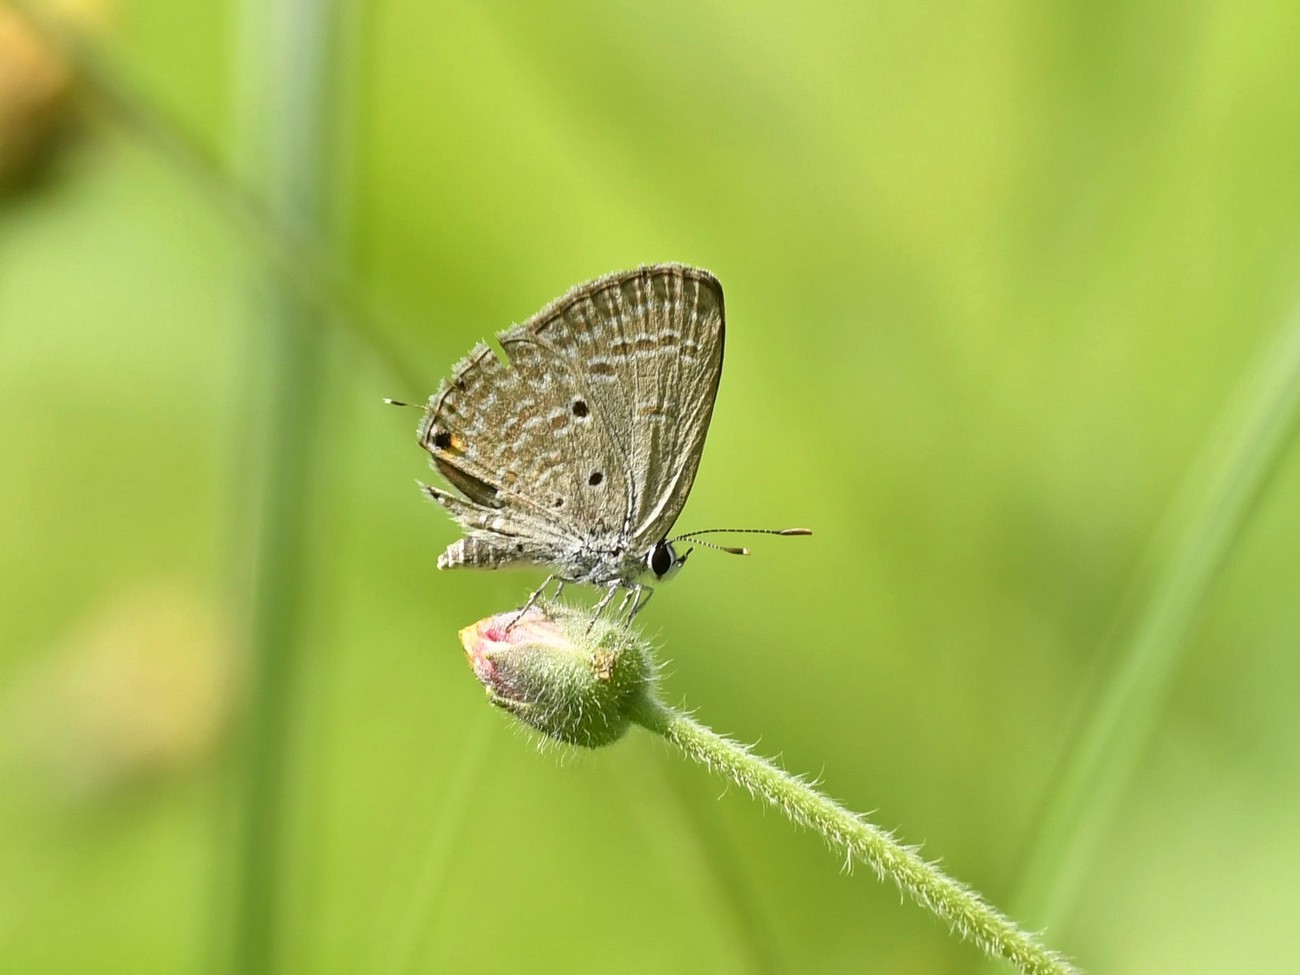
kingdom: Animalia
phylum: Arthropoda
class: Insecta
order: Lepidoptera
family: Lycaenidae
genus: Luthrodes
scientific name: Luthrodes pandava
